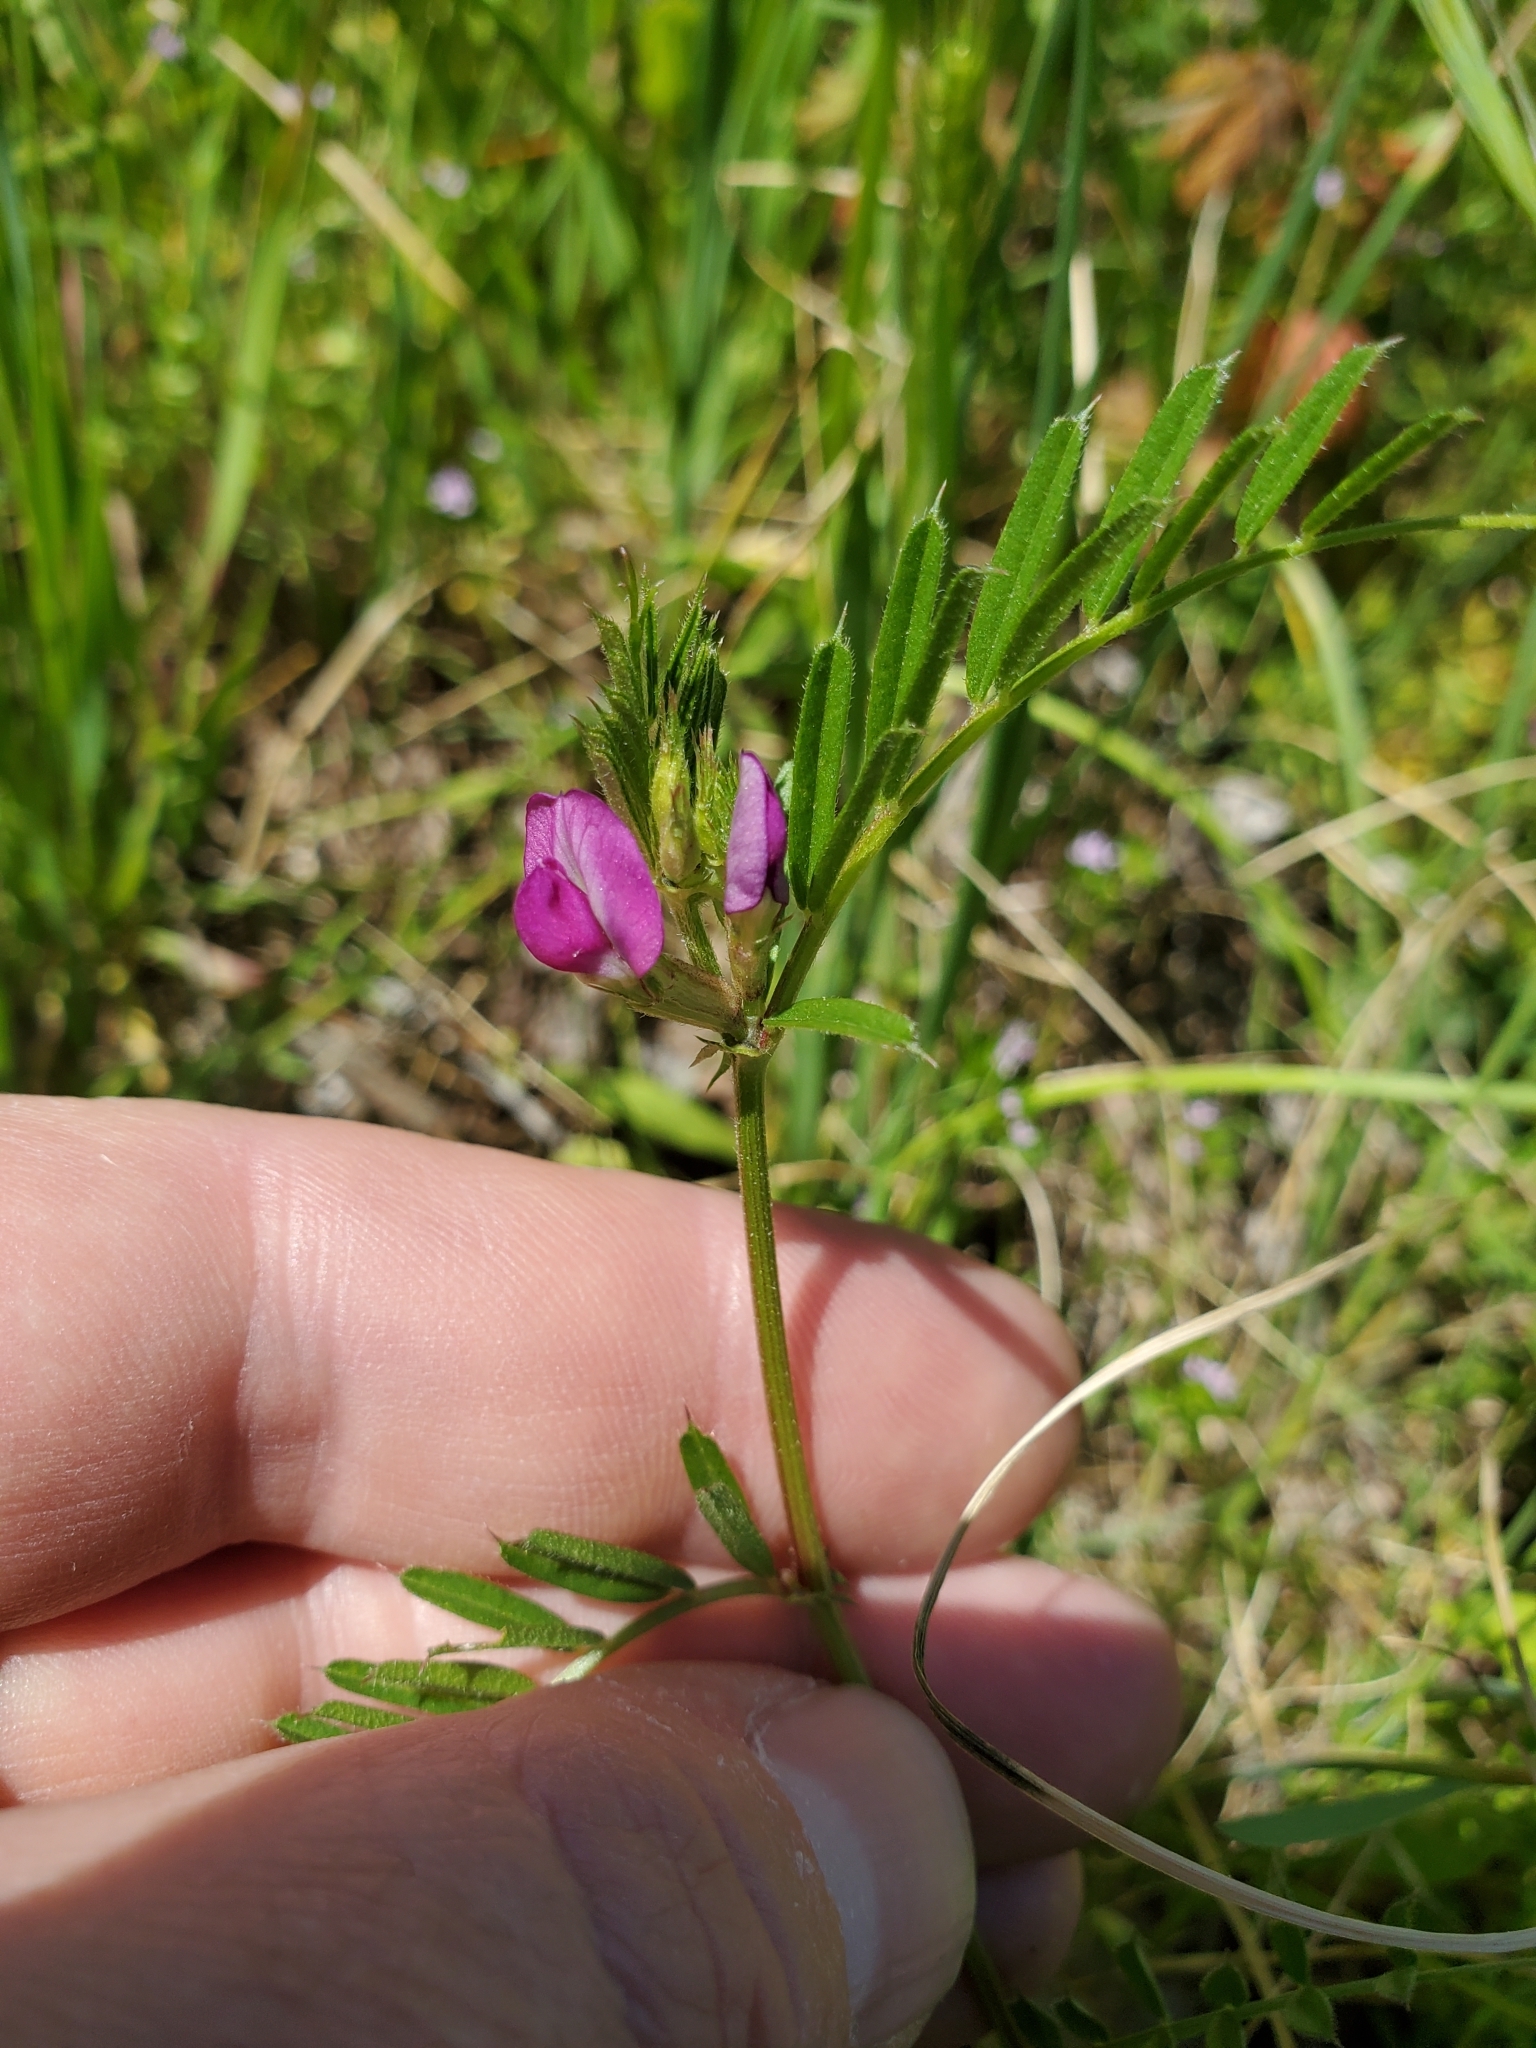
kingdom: Plantae
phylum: Tracheophyta
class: Magnoliopsida
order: Fabales
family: Fabaceae
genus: Vicia
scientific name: Vicia sativa
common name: Garden vetch
